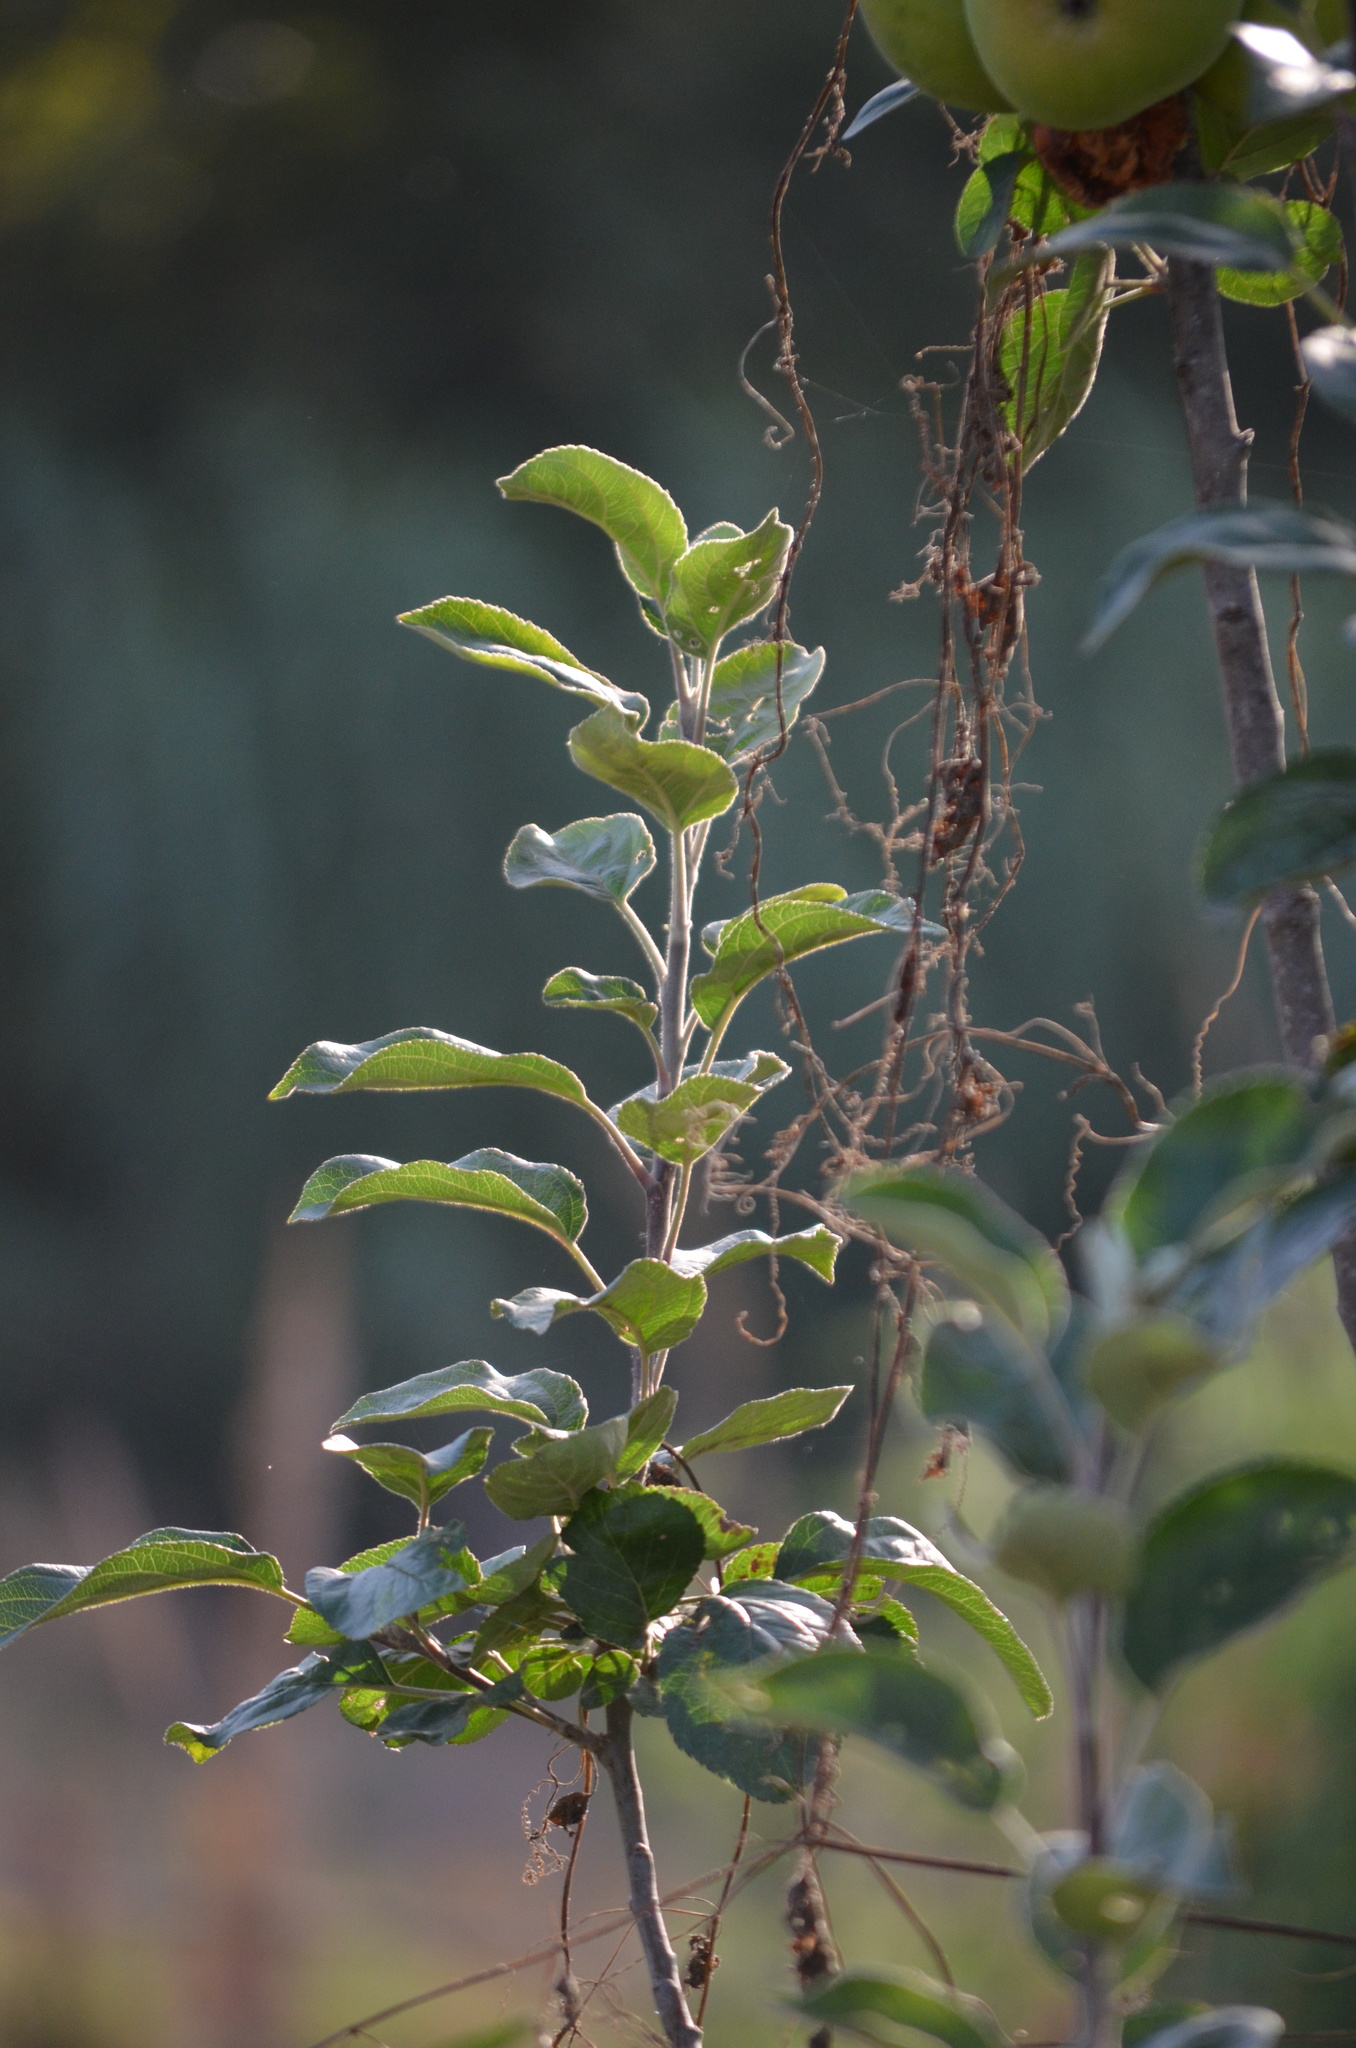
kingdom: Plantae
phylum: Tracheophyta
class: Magnoliopsida
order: Rosales
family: Rosaceae
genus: Malus
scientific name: Malus domestica
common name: Apple
